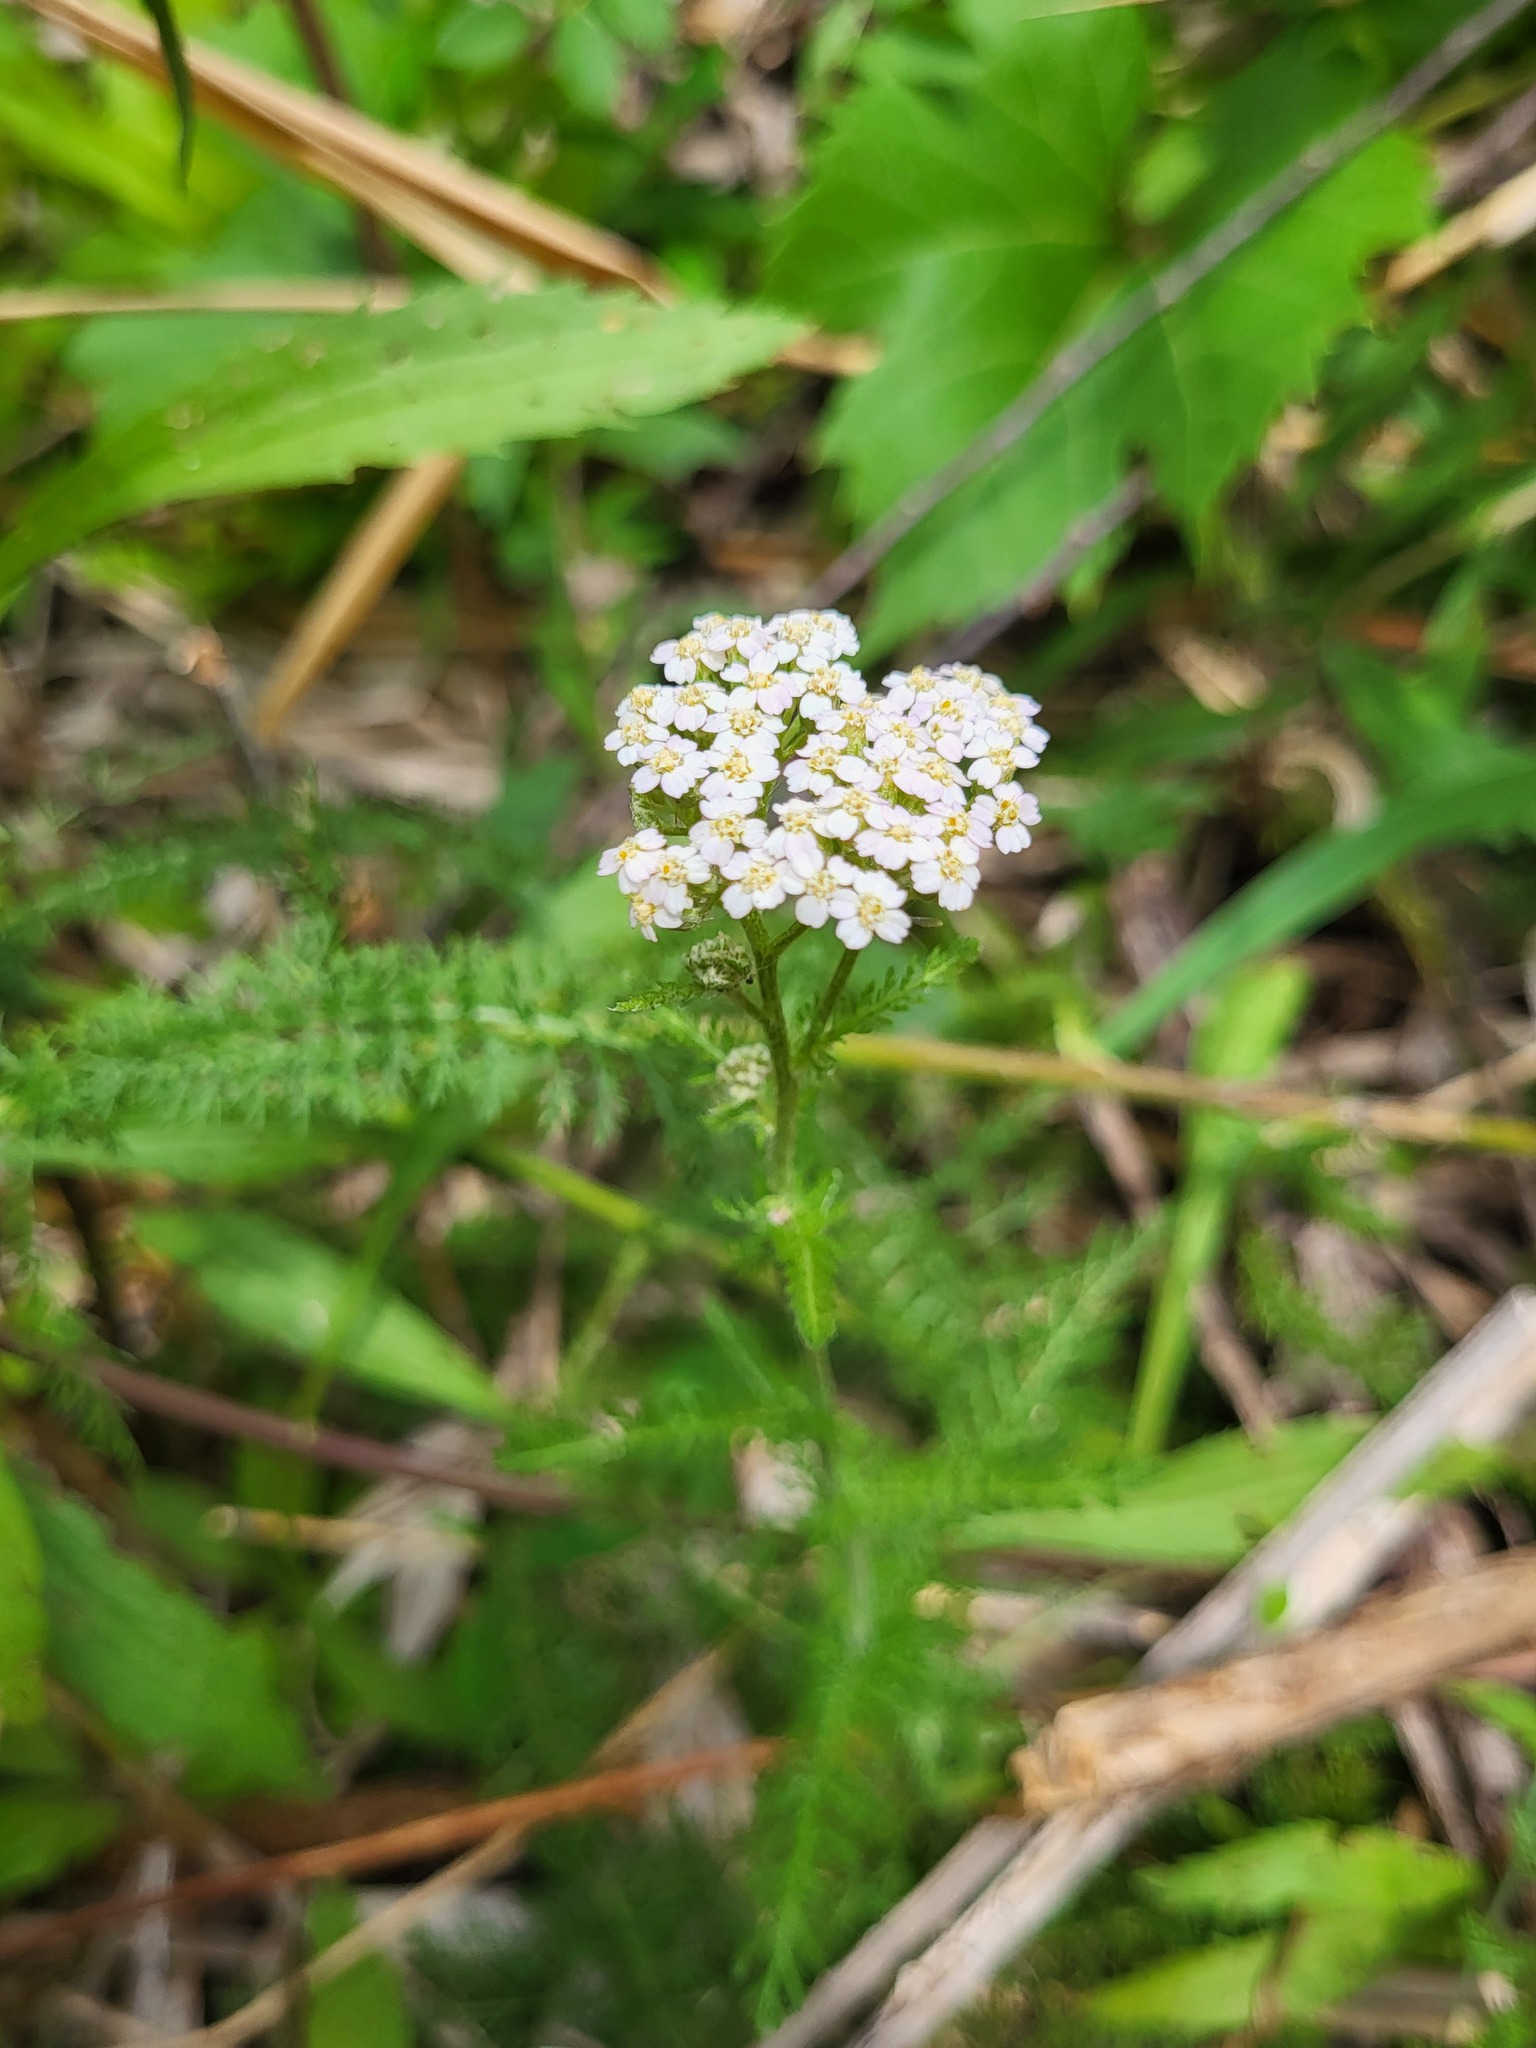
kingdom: Plantae
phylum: Tracheophyta
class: Magnoliopsida
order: Asterales
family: Asteraceae
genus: Achillea
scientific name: Achillea millefolium
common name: Yarrow
